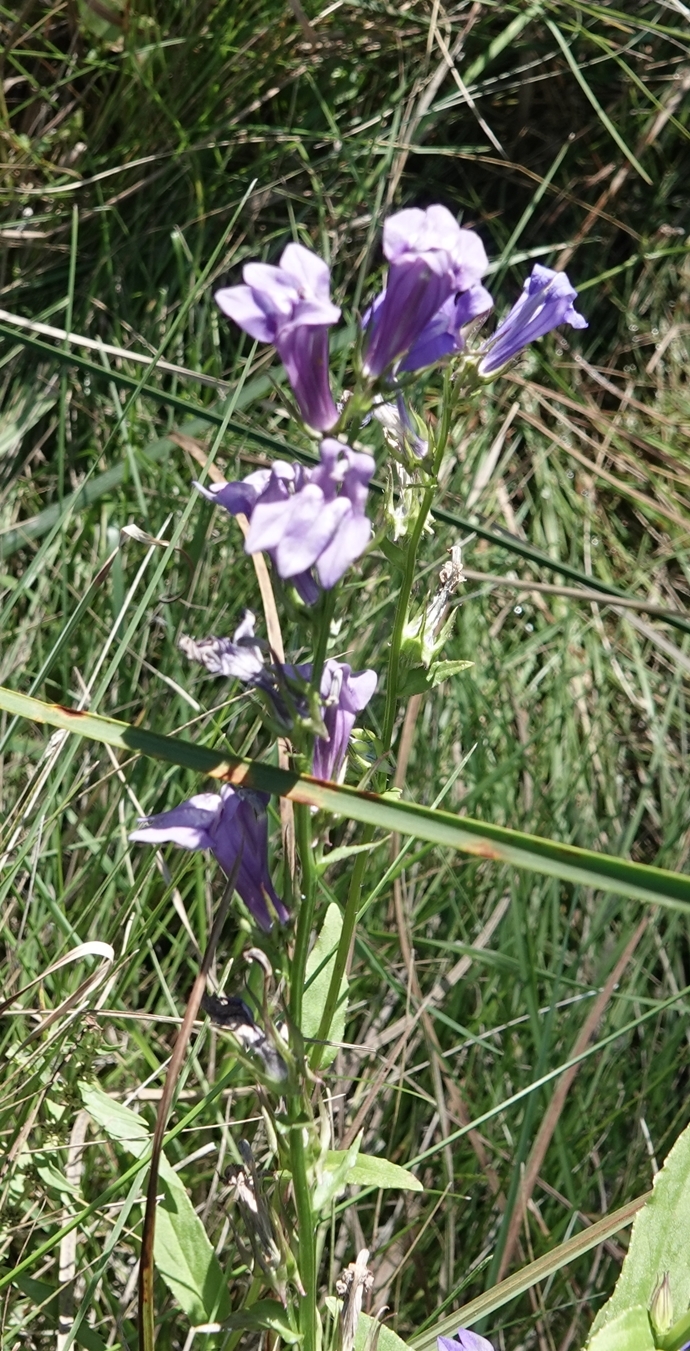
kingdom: Plantae
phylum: Tracheophyta
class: Magnoliopsida
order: Asterales
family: Campanulaceae
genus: Lobelia
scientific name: Lobelia siphilitica
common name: Great lobelia
